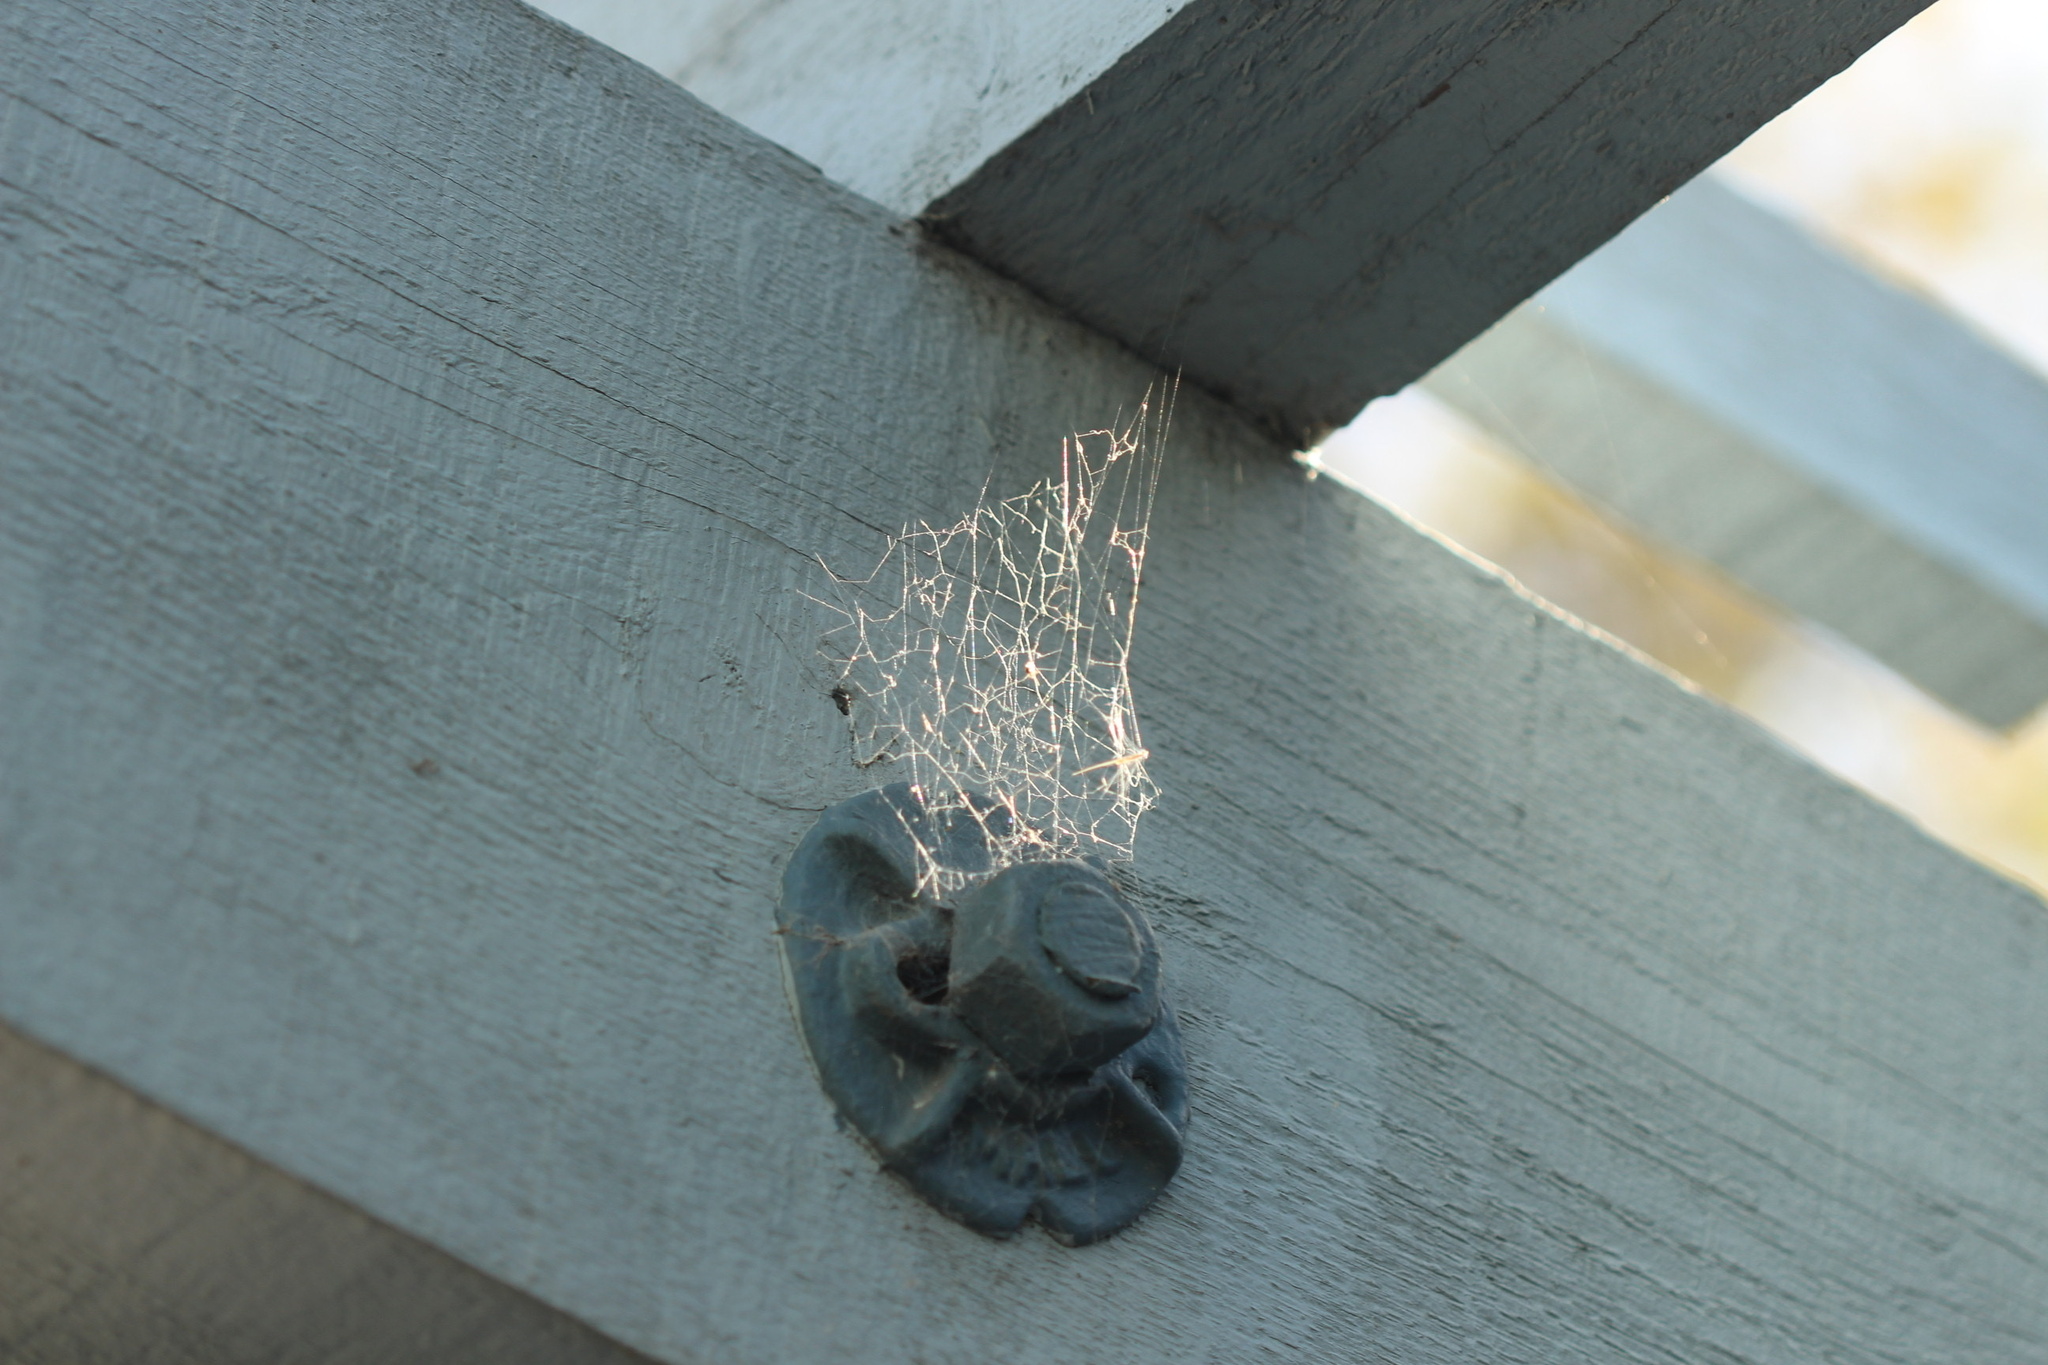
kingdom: Animalia
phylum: Arthropoda
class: Arachnida
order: Araneae
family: Desidae
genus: Badumna
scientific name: Badumna longinqua
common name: Gray house spider
